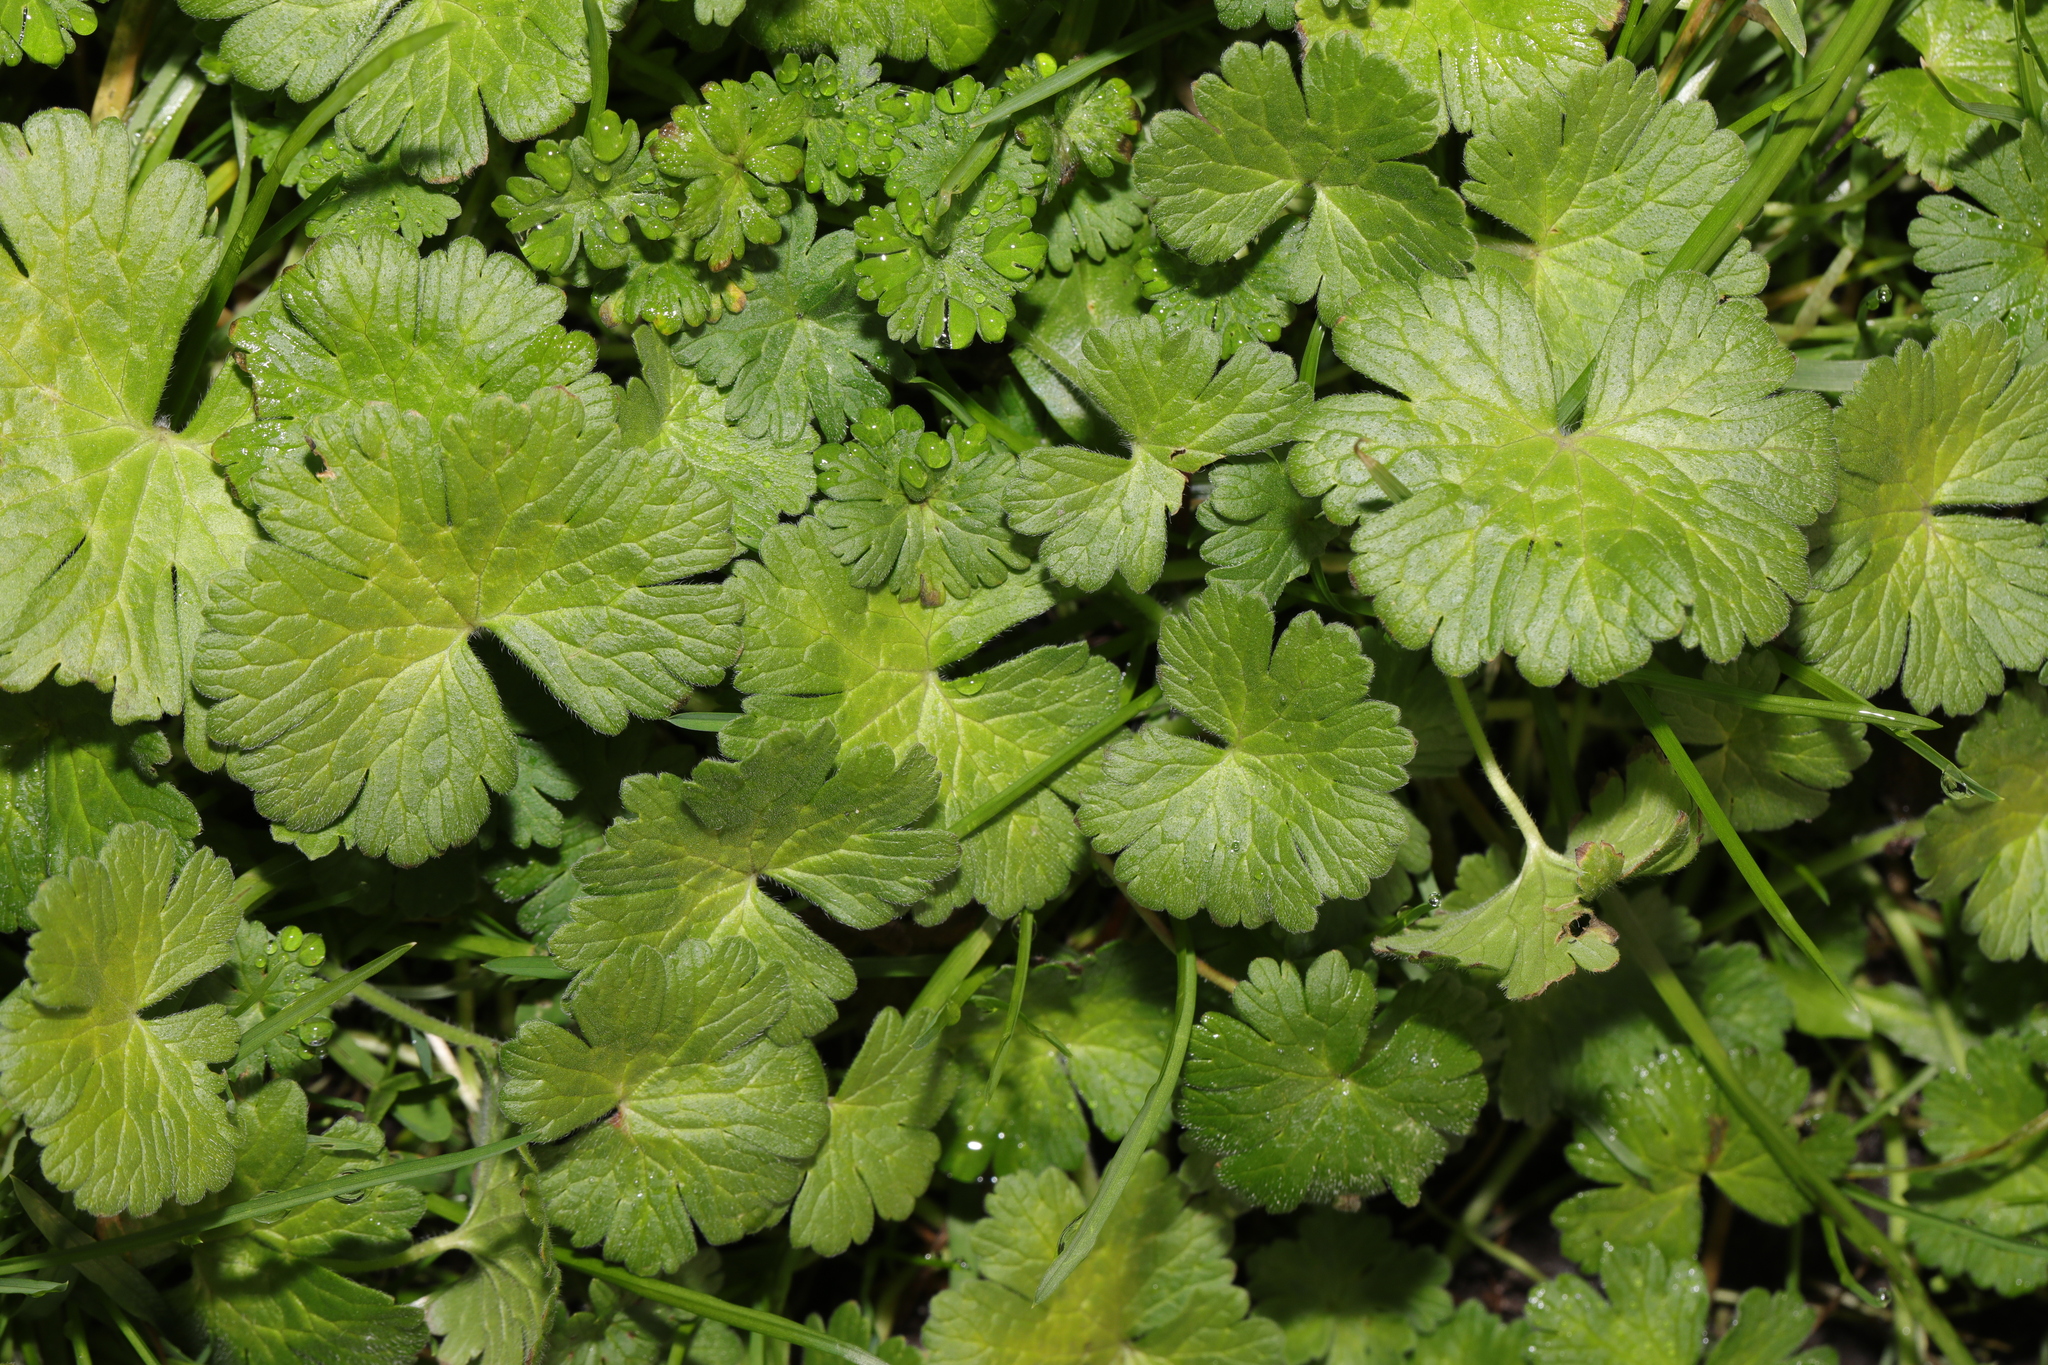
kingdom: Plantae
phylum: Tracheophyta
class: Magnoliopsida
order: Geraniales
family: Geraniaceae
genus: Geranium
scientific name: Geranium pyrenaicum
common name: Hedgerow crane's-bill
